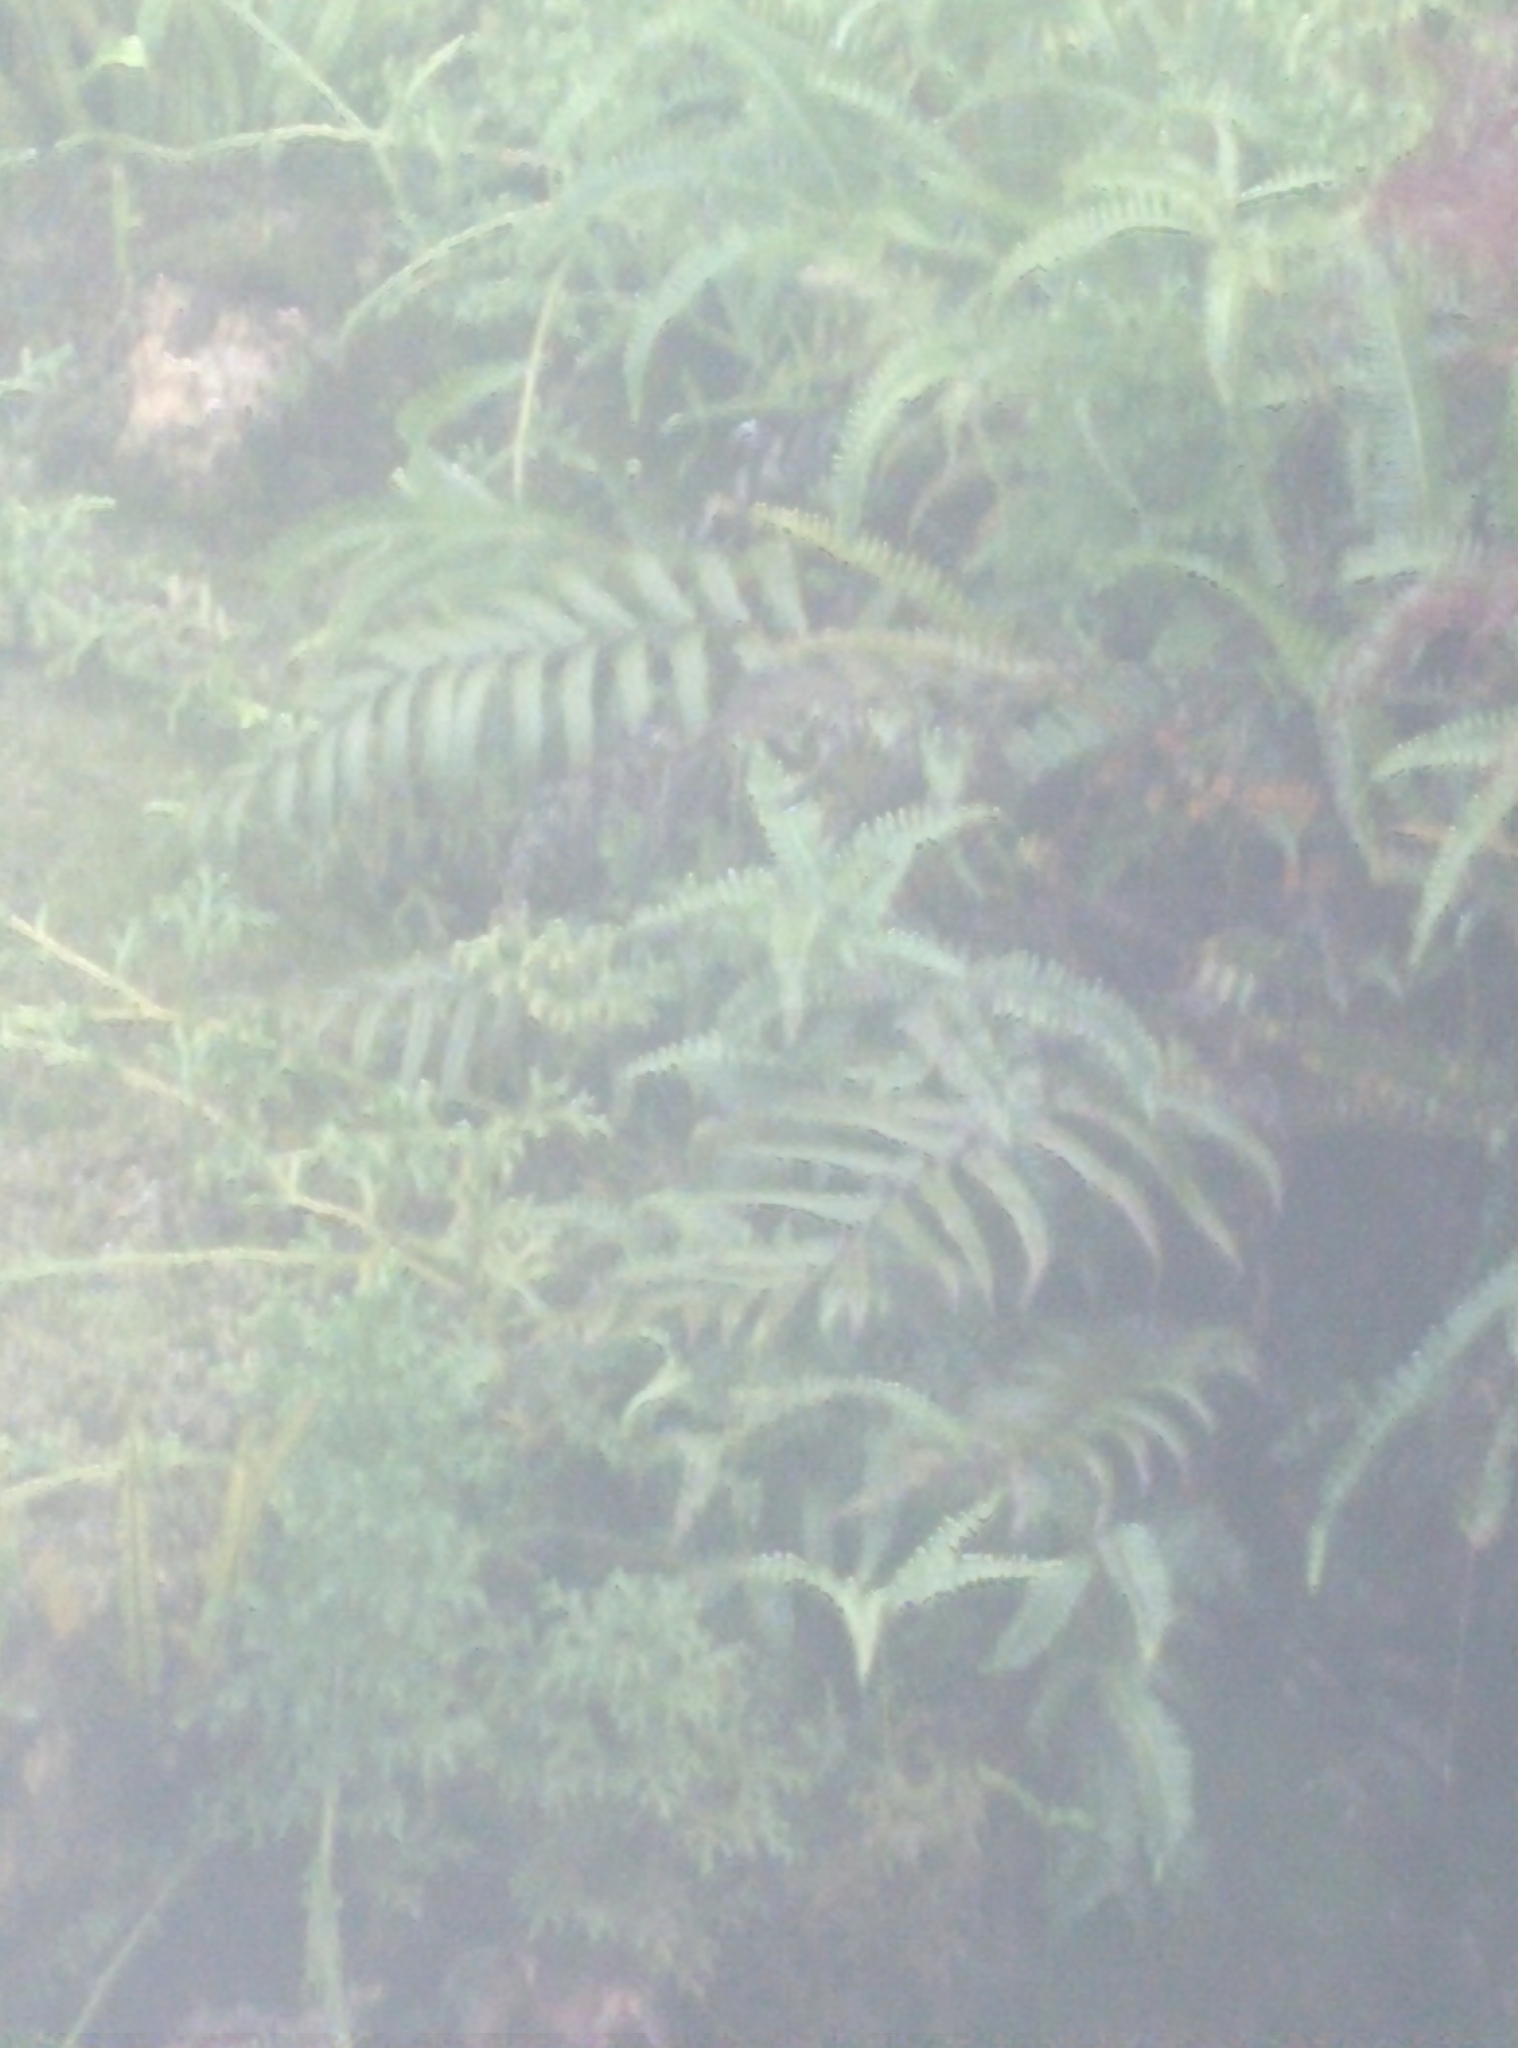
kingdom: Plantae
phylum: Tracheophyta
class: Polypodiopsida
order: Polypodiales
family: Thelypteridaceae
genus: Cyclosorus
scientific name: Cyclosorus interruptus
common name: Neke fern
